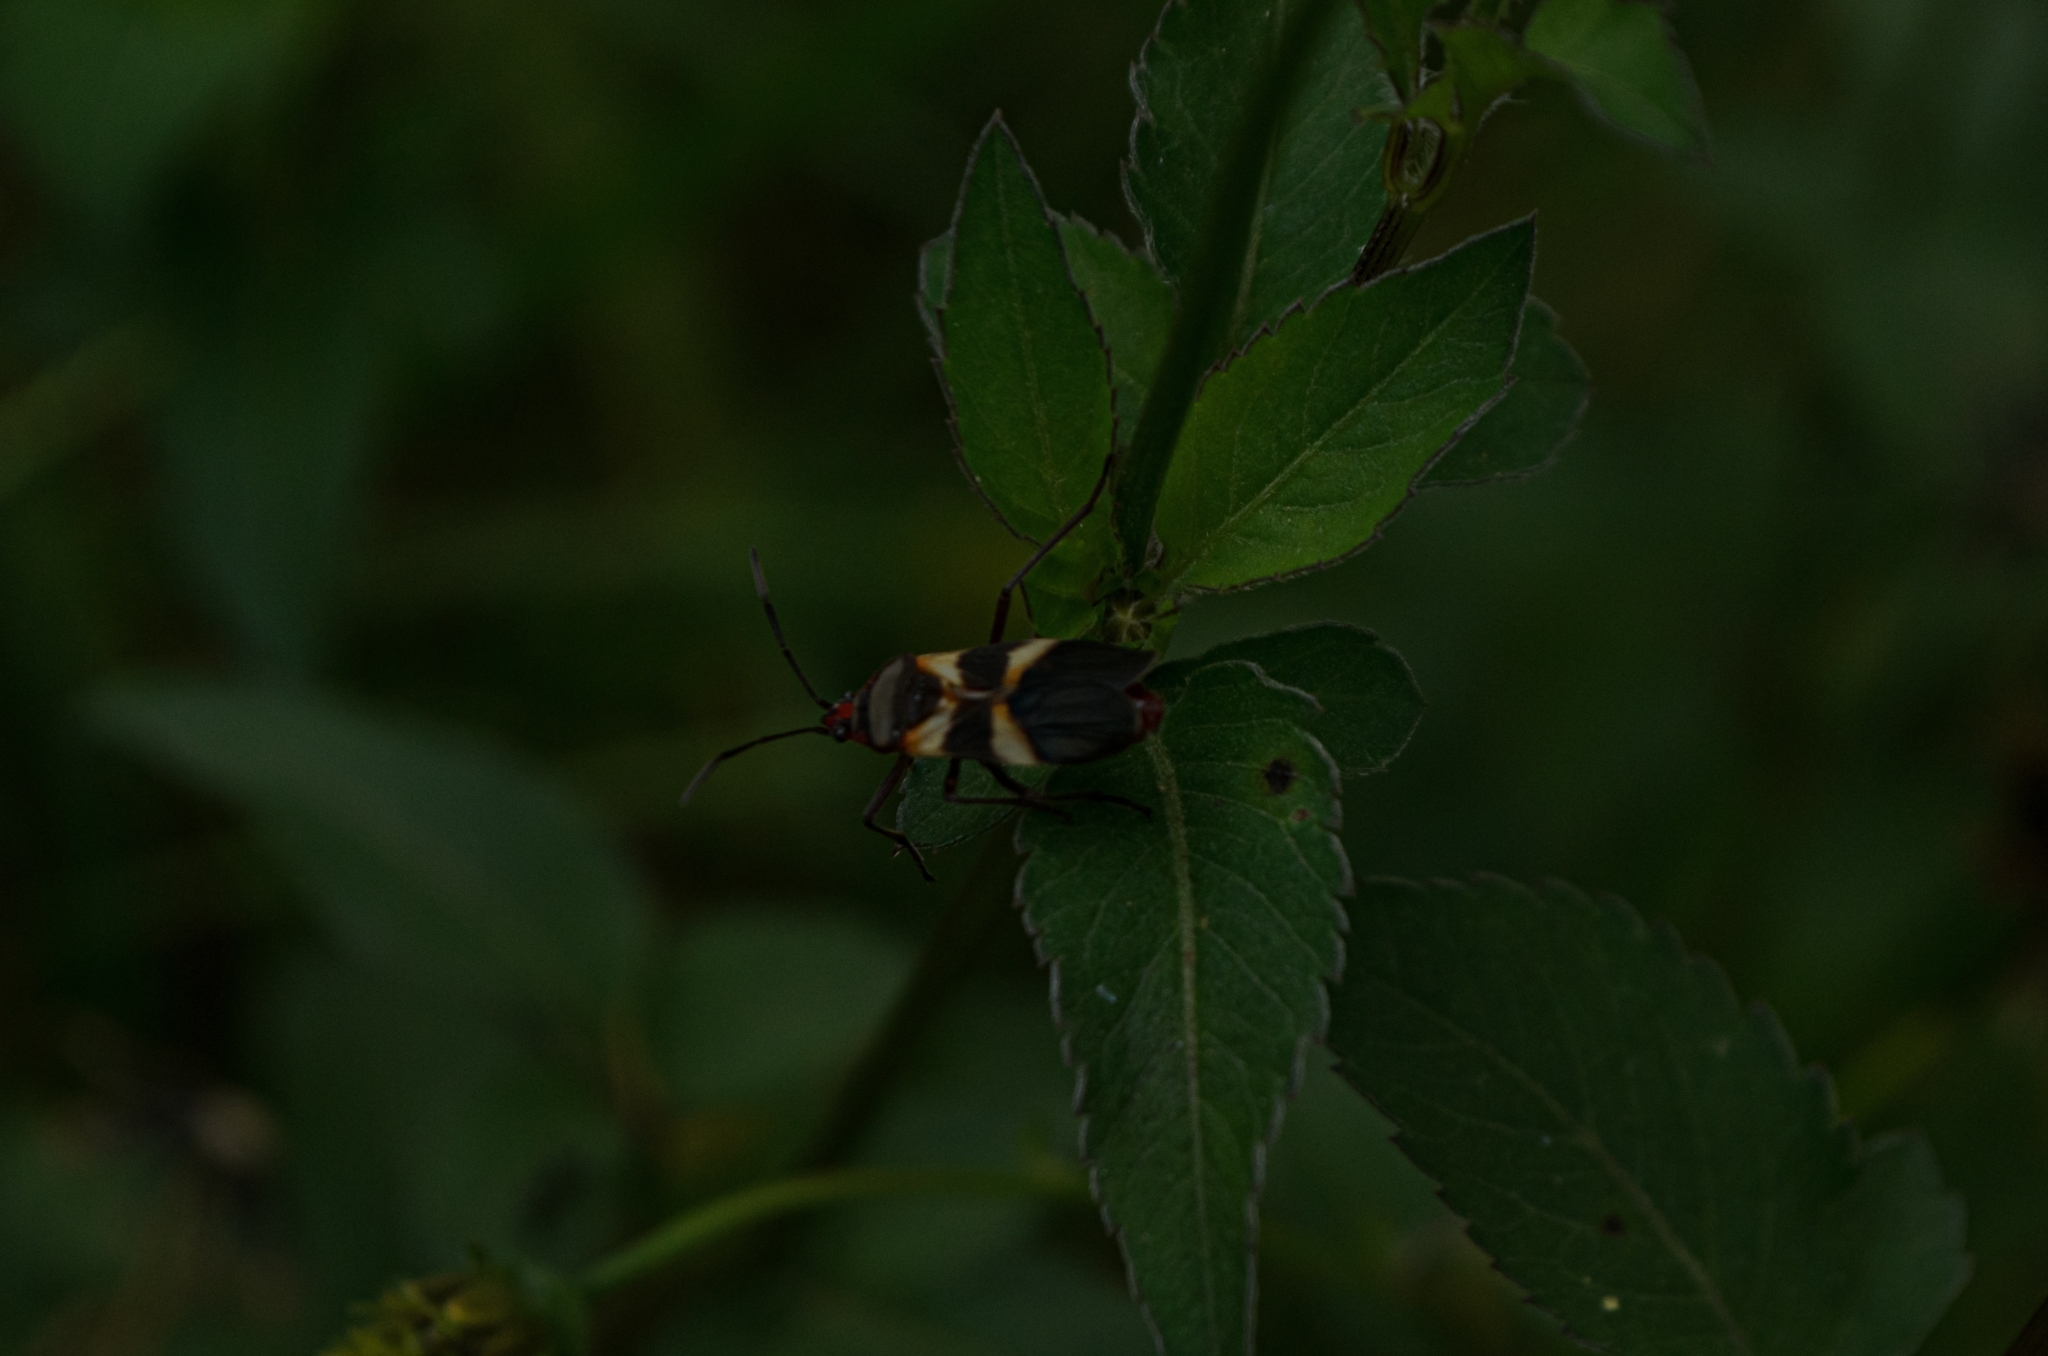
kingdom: Animalia
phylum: Arthropoda
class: Insecta
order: Hemiptera
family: Lygaeidae
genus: Oncopeltus
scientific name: Oncopeltus unifasciatellus
